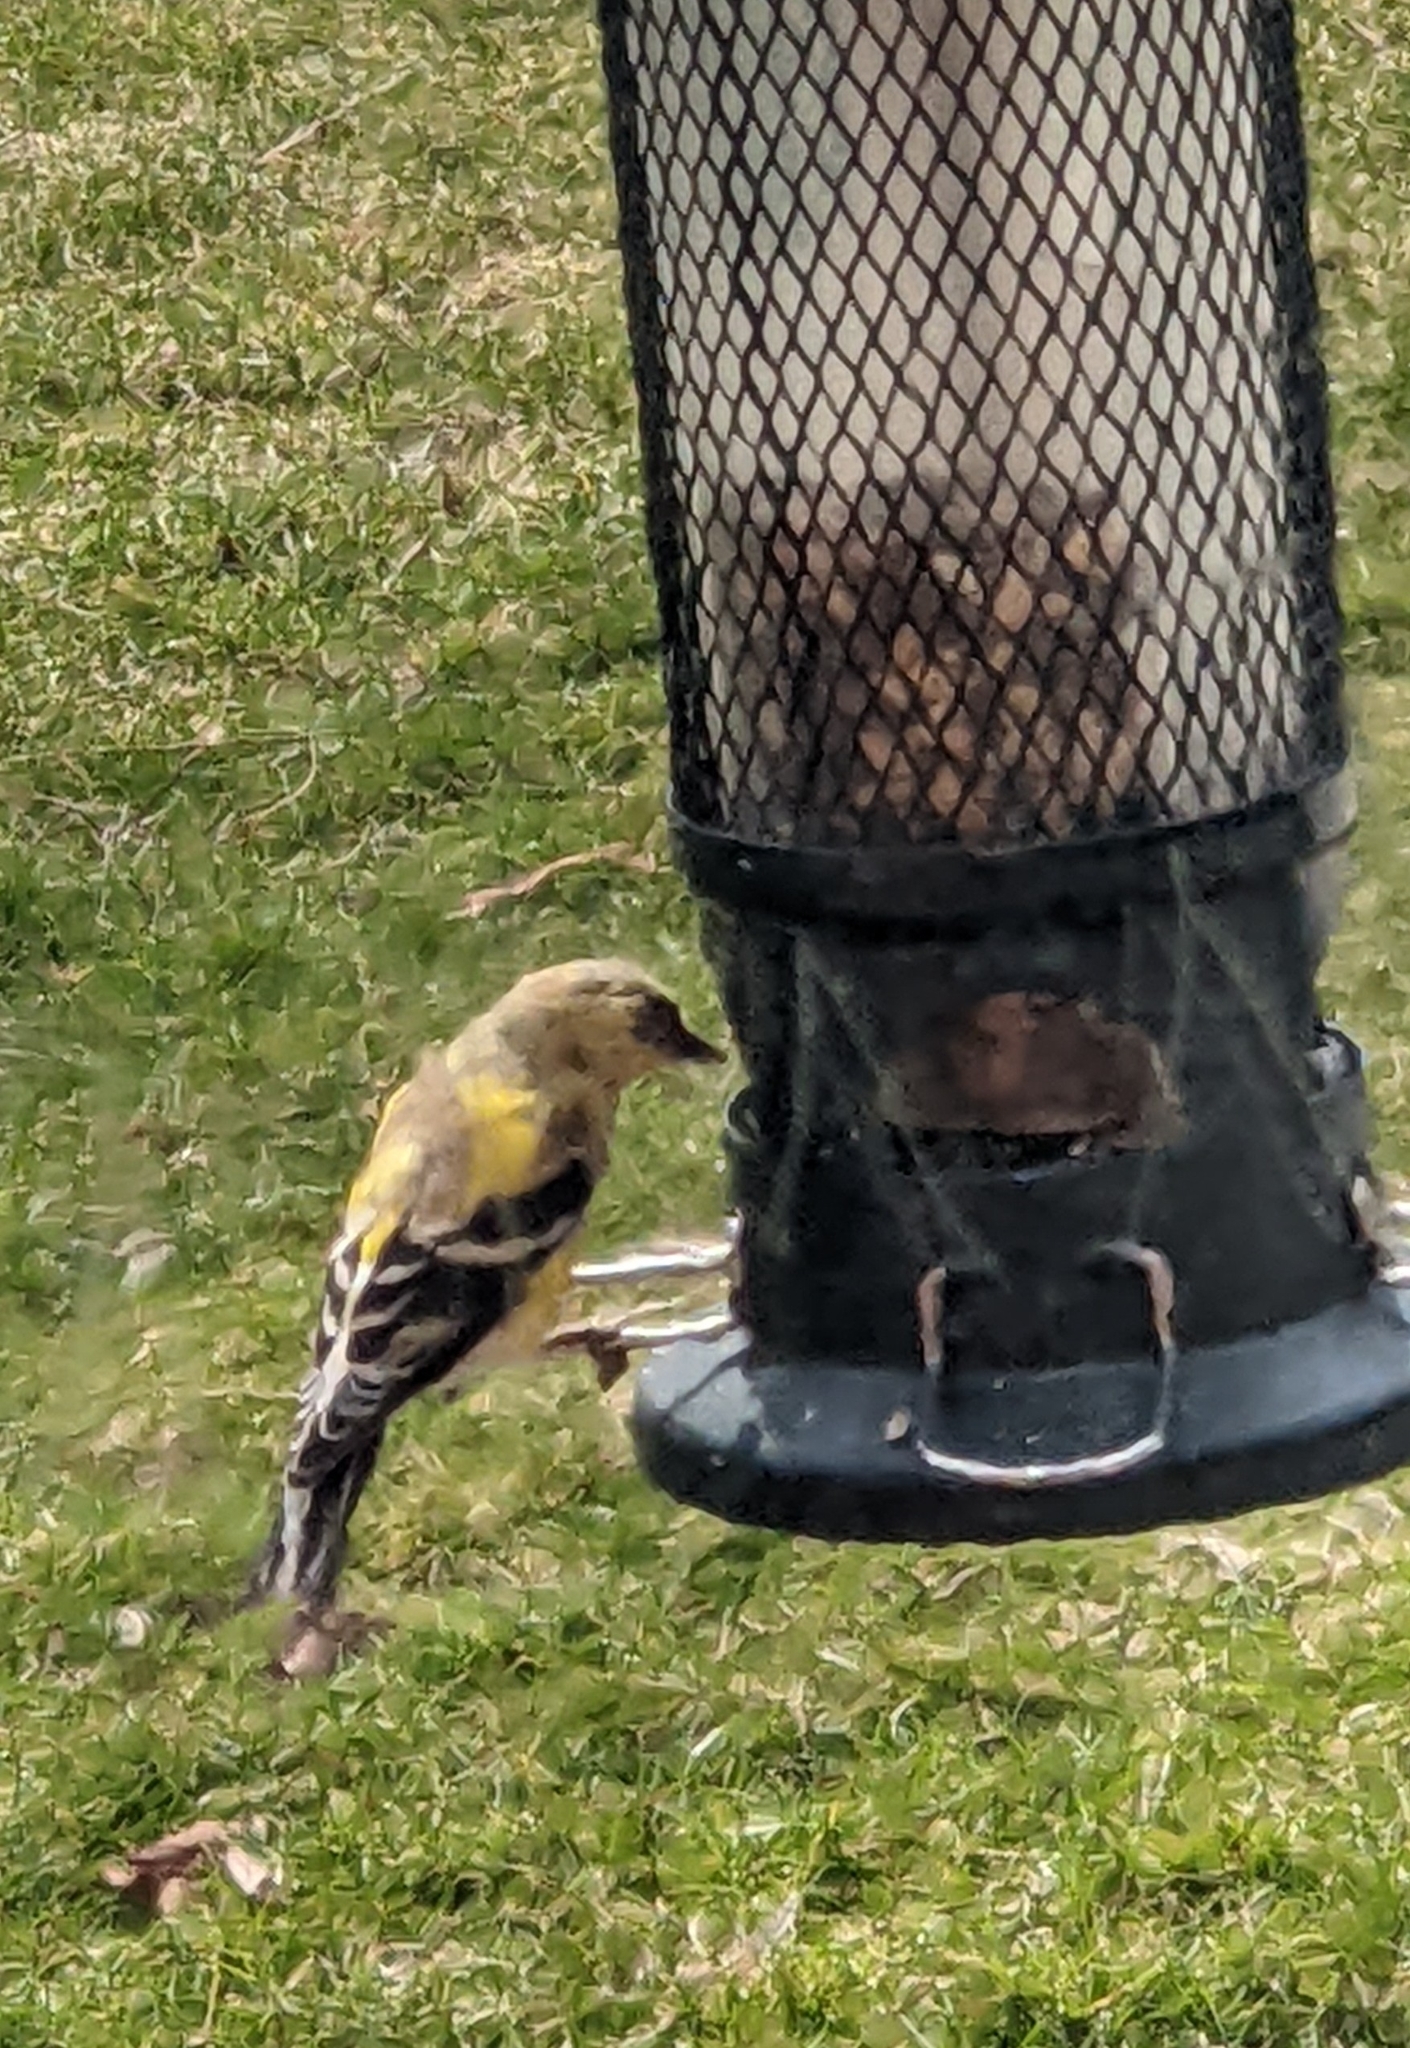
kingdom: Animalia
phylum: Chordata
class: Aves
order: Passeriformes
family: Fringillidae
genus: Spinus
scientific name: Spinus tristis
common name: American goldfinch
